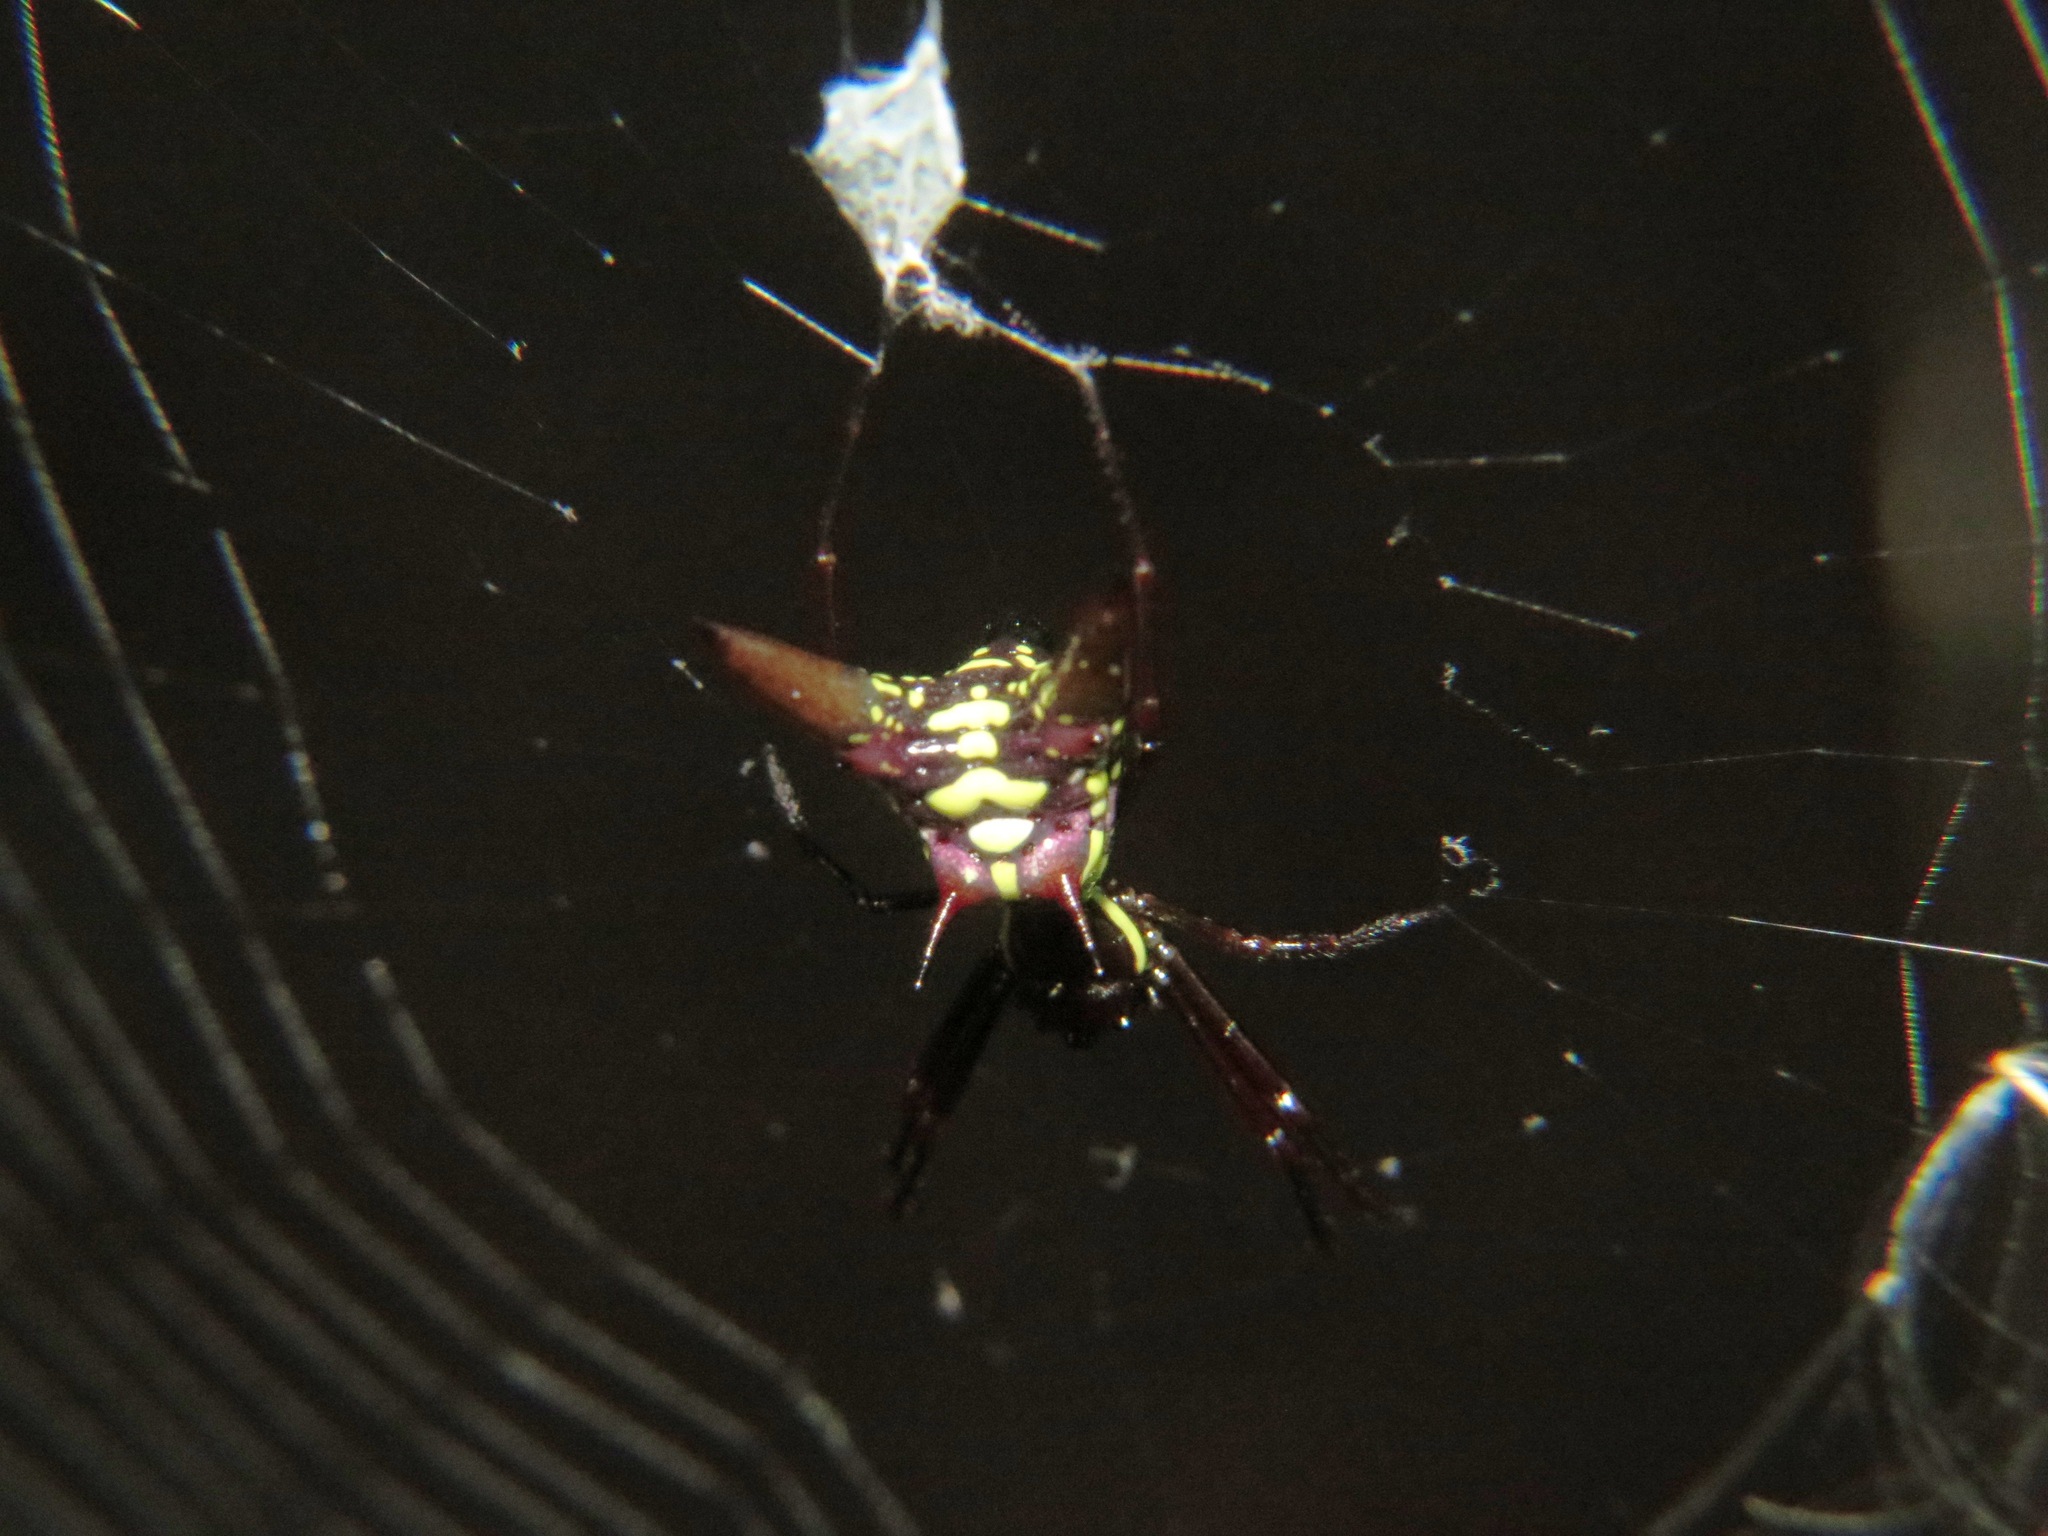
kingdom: Animalia
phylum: Arthropoda
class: Arachnida
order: Araneae
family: Araneidae
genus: Micrathena
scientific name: Micrathena sexspinosa
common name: Orb weavers
